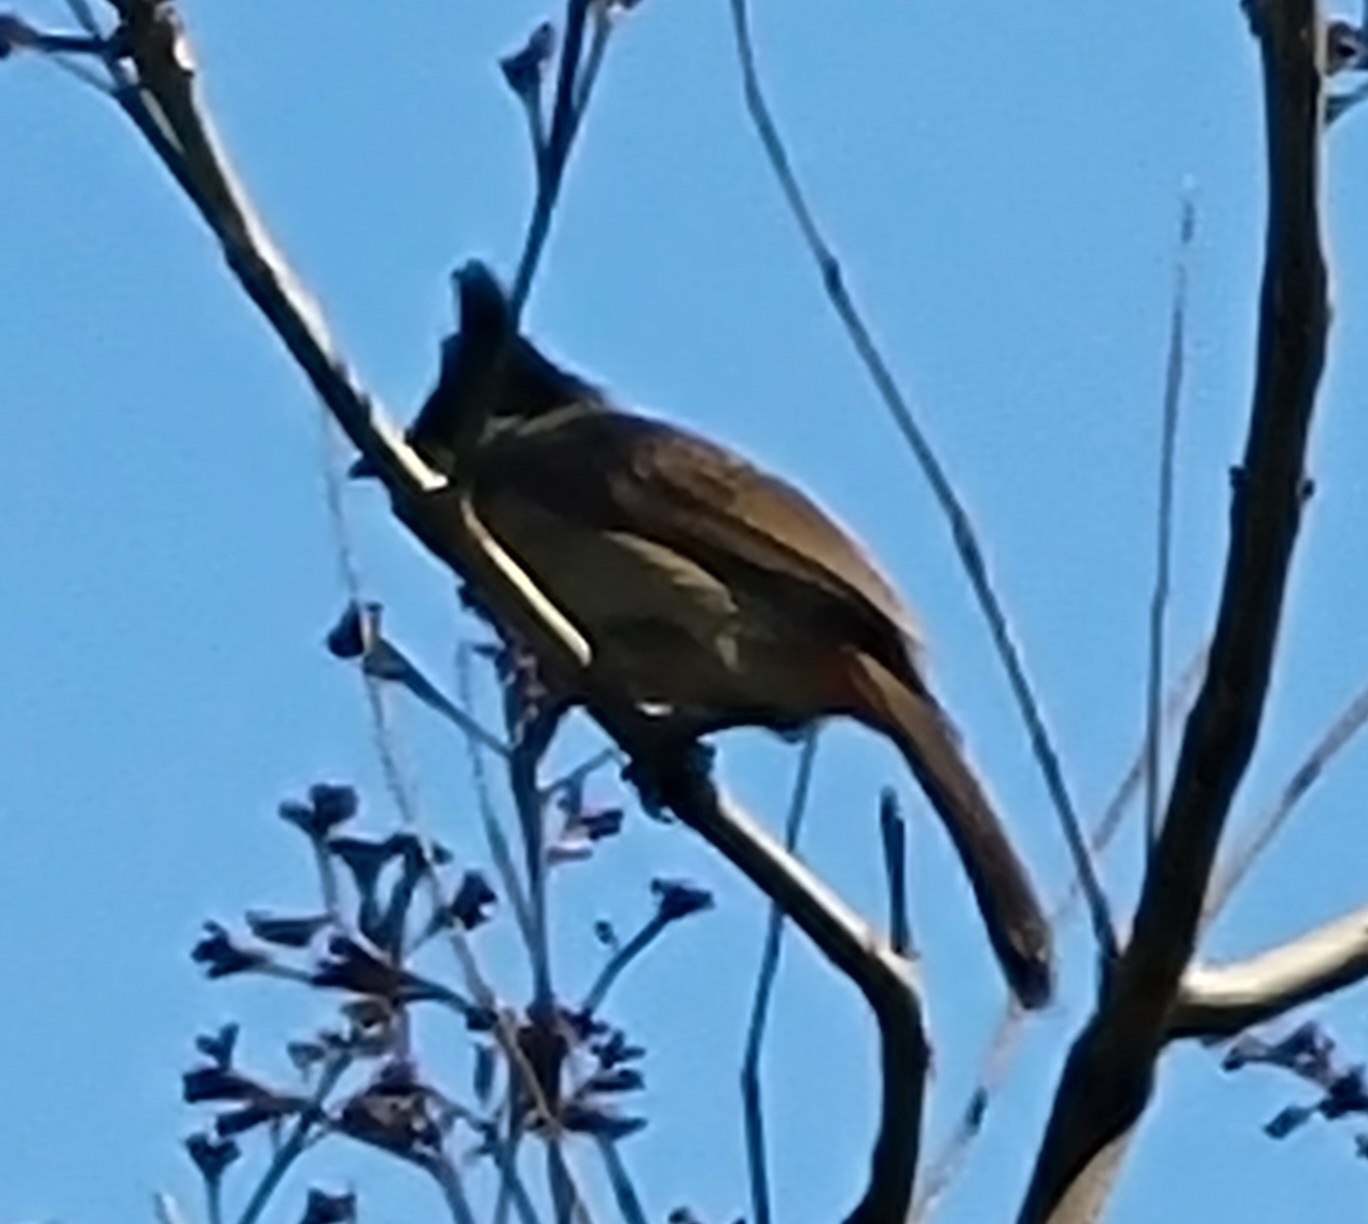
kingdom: Animalia
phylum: Chordata
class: Aves
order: Passeriformes
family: Pycnonotidae
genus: Pycnonotus
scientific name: Pycnonotus jocosus
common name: Red-whiskered bulbul
